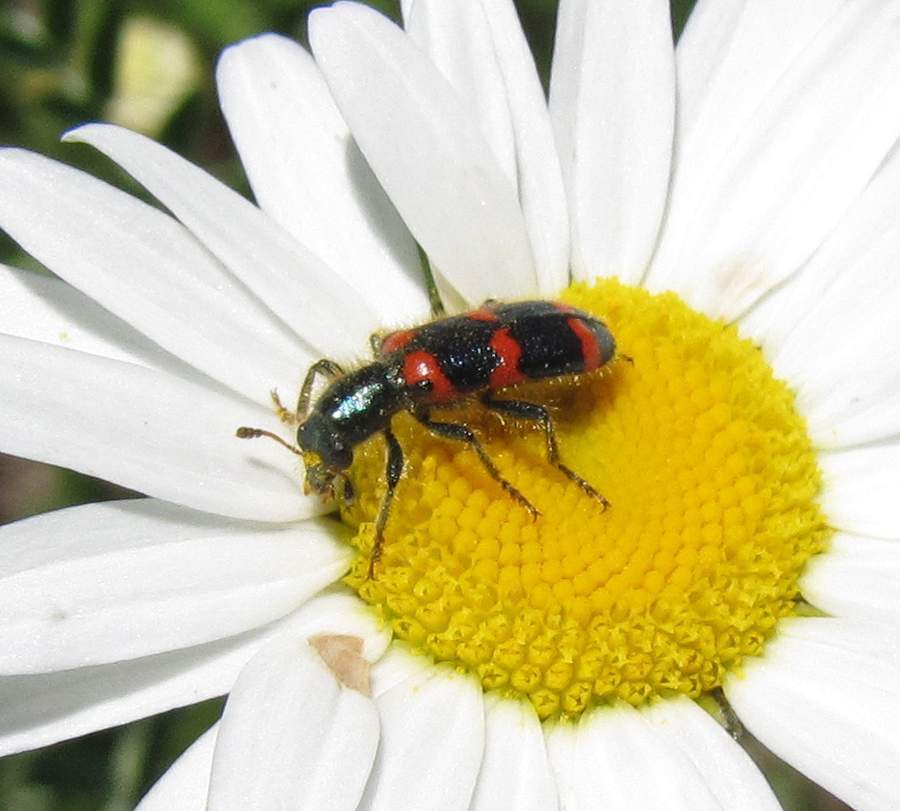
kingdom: Animalia
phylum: Arthropoda
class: Insecta
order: Coleoptera
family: Cleridae
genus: Trichodes
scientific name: Trichodes nutalli
